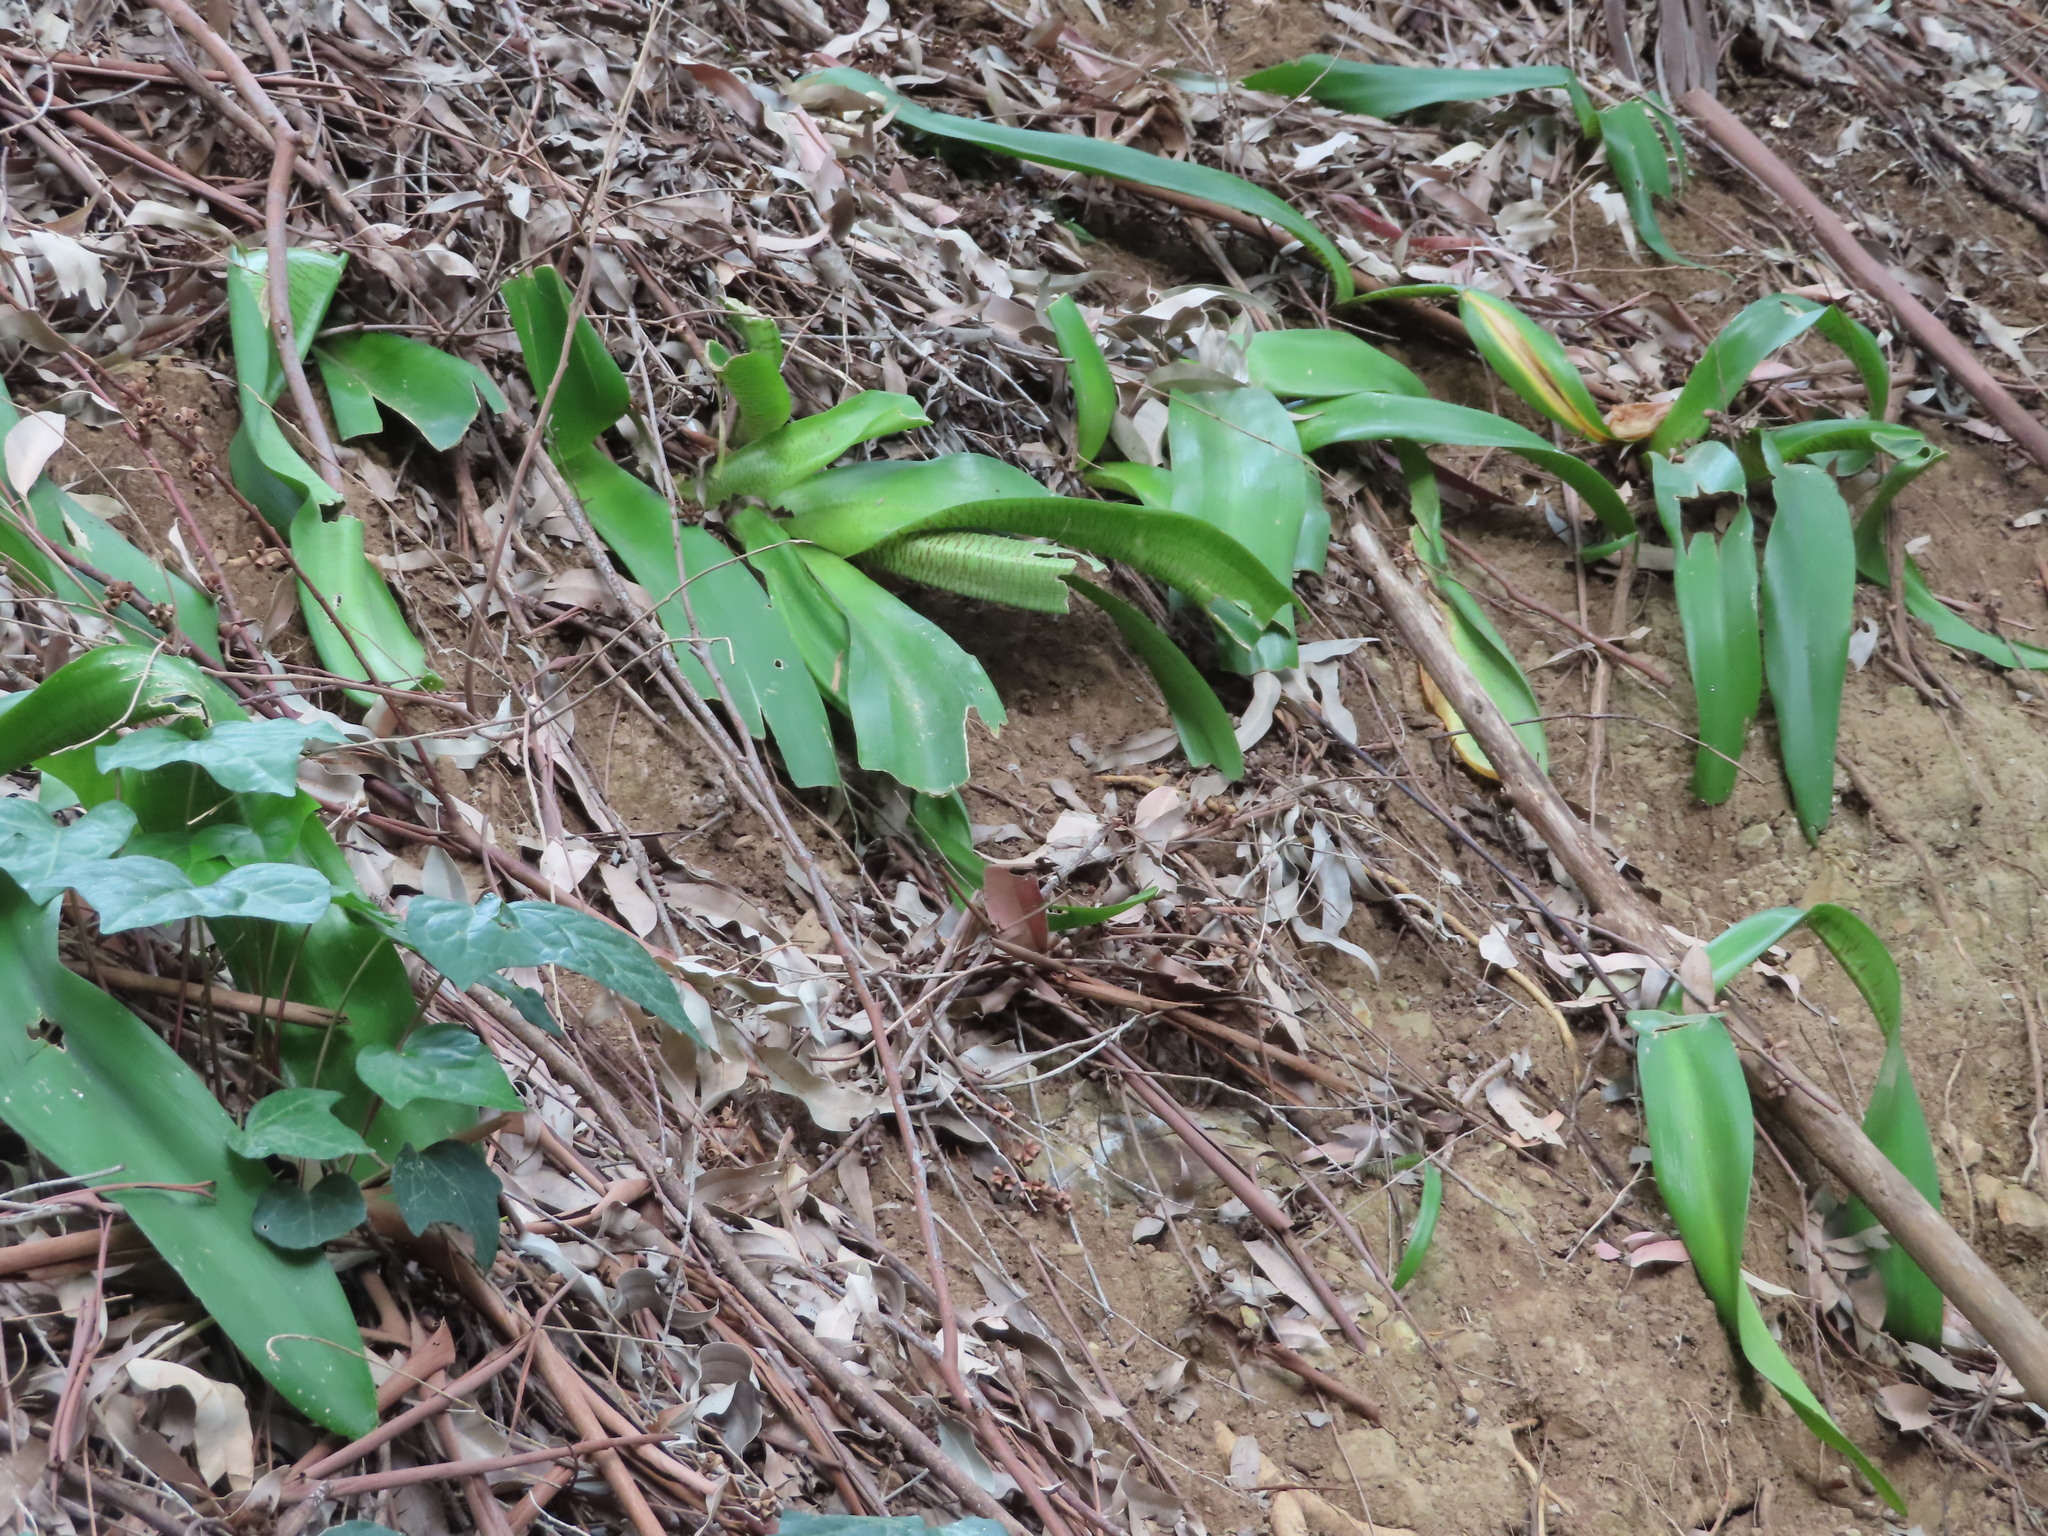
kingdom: Plantae
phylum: Tracheophyta
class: Liliopsida
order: Asparagales
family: Amaryllidaceae
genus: Haemanthus
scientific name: Haemanthus coccineus
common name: Cape-tulip
